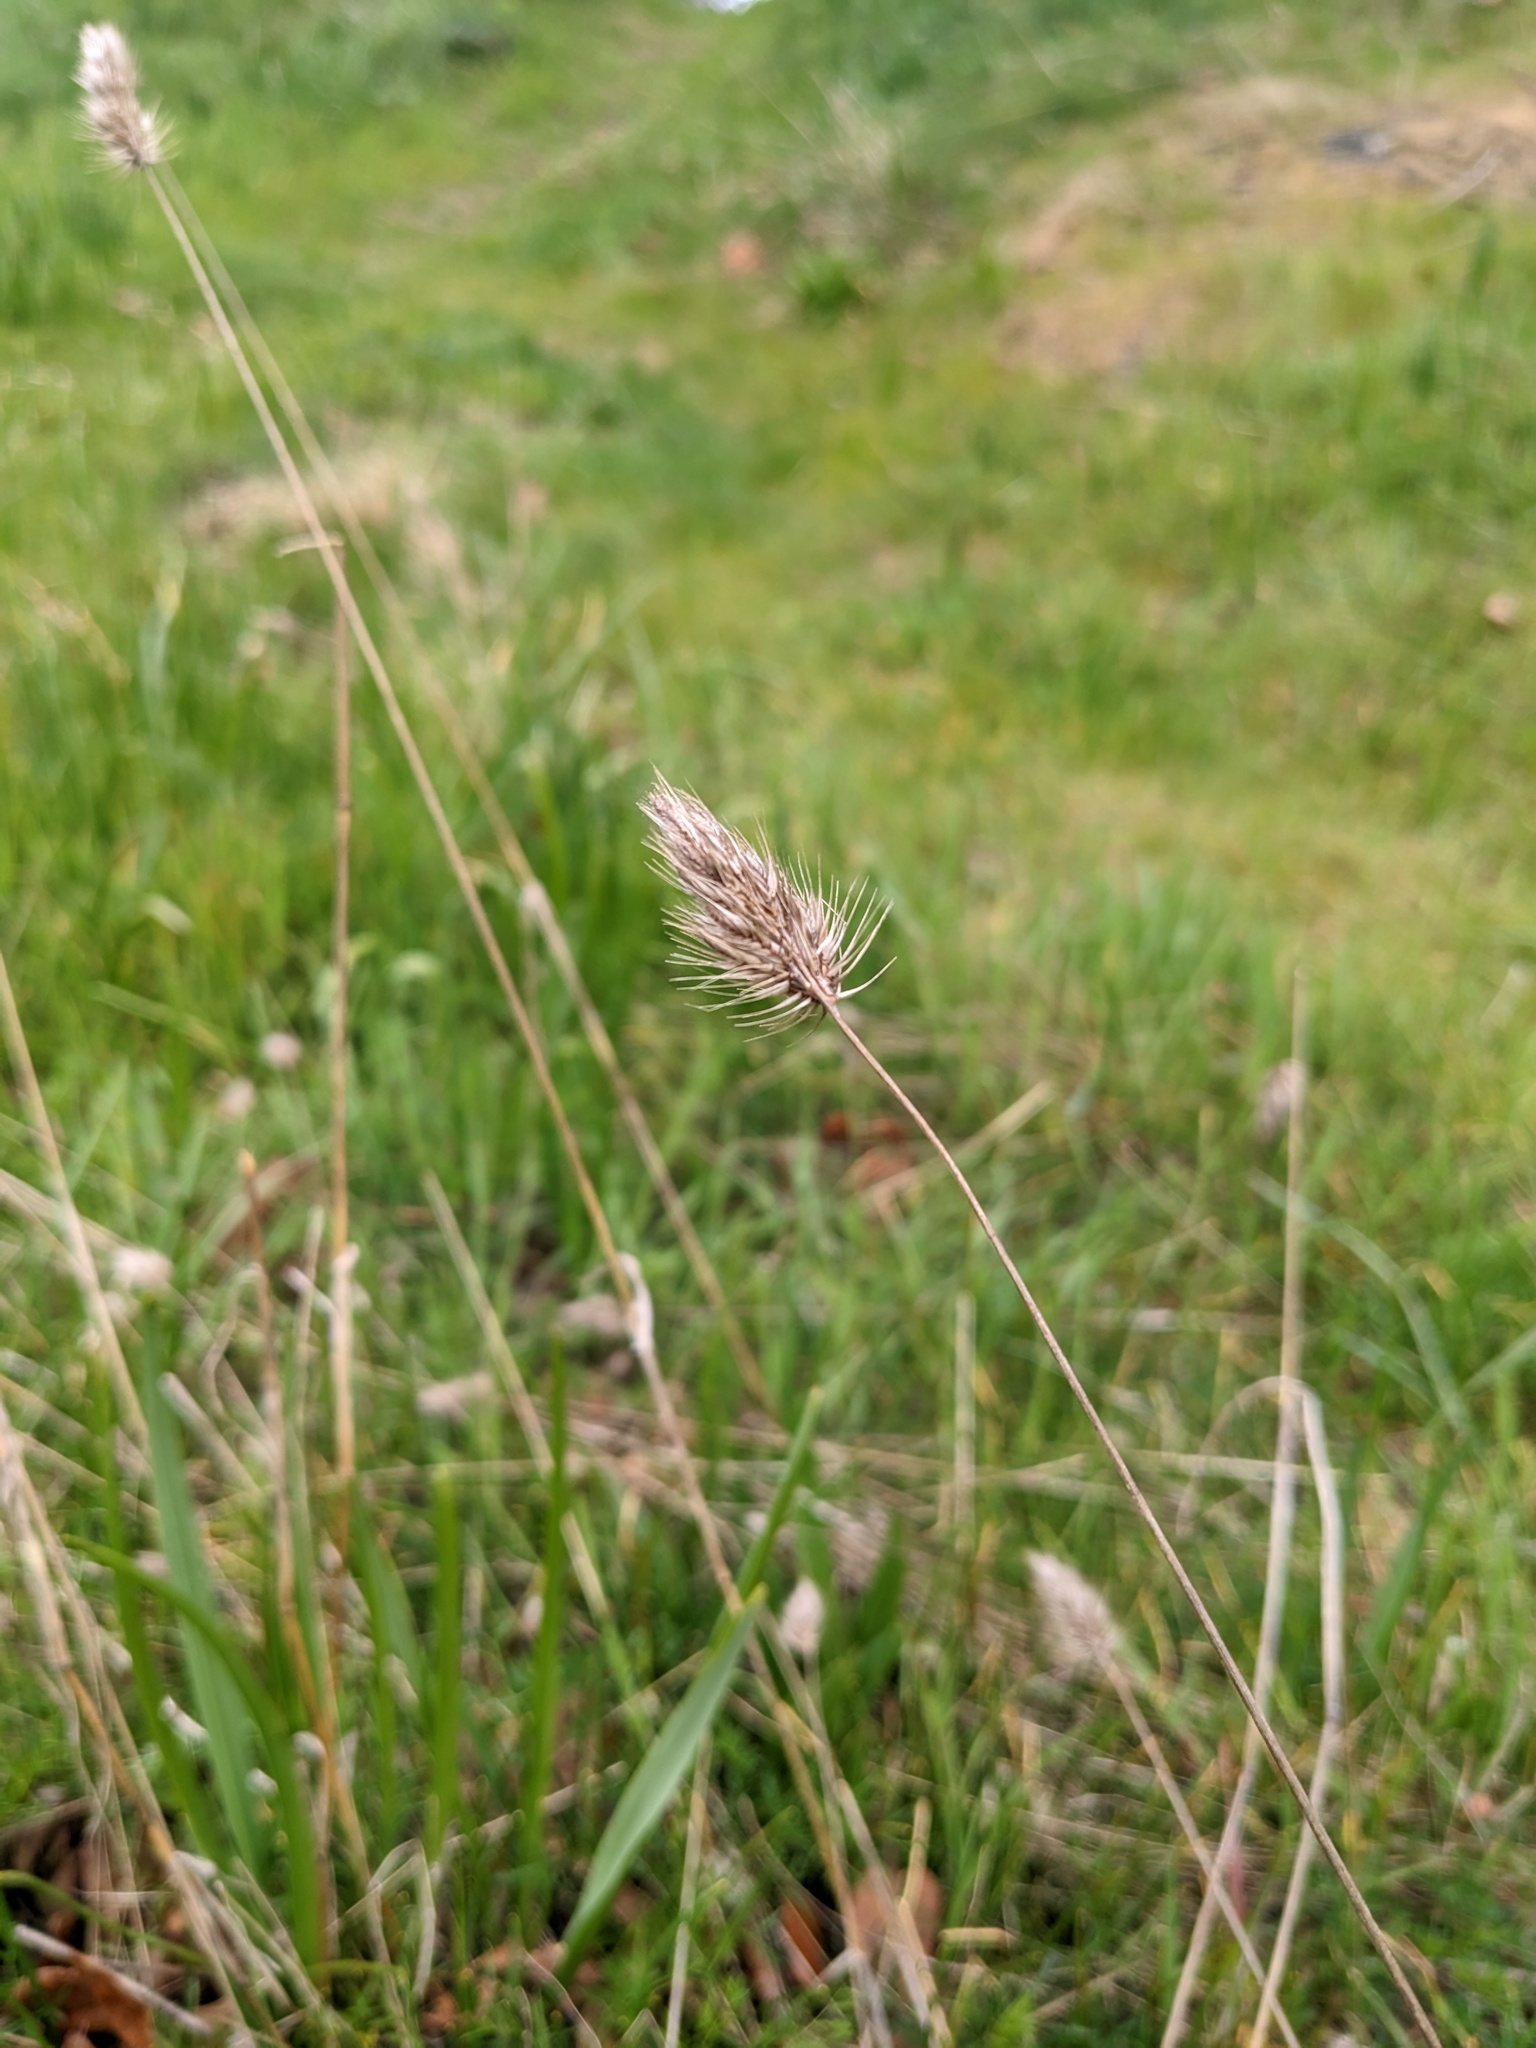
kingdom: Plantae
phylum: Tracheophyta
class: Liliopsida
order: Poales
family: Poaceae
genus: Cynosurus
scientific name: Cynosurus echinatus
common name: Rough dog's-tail
